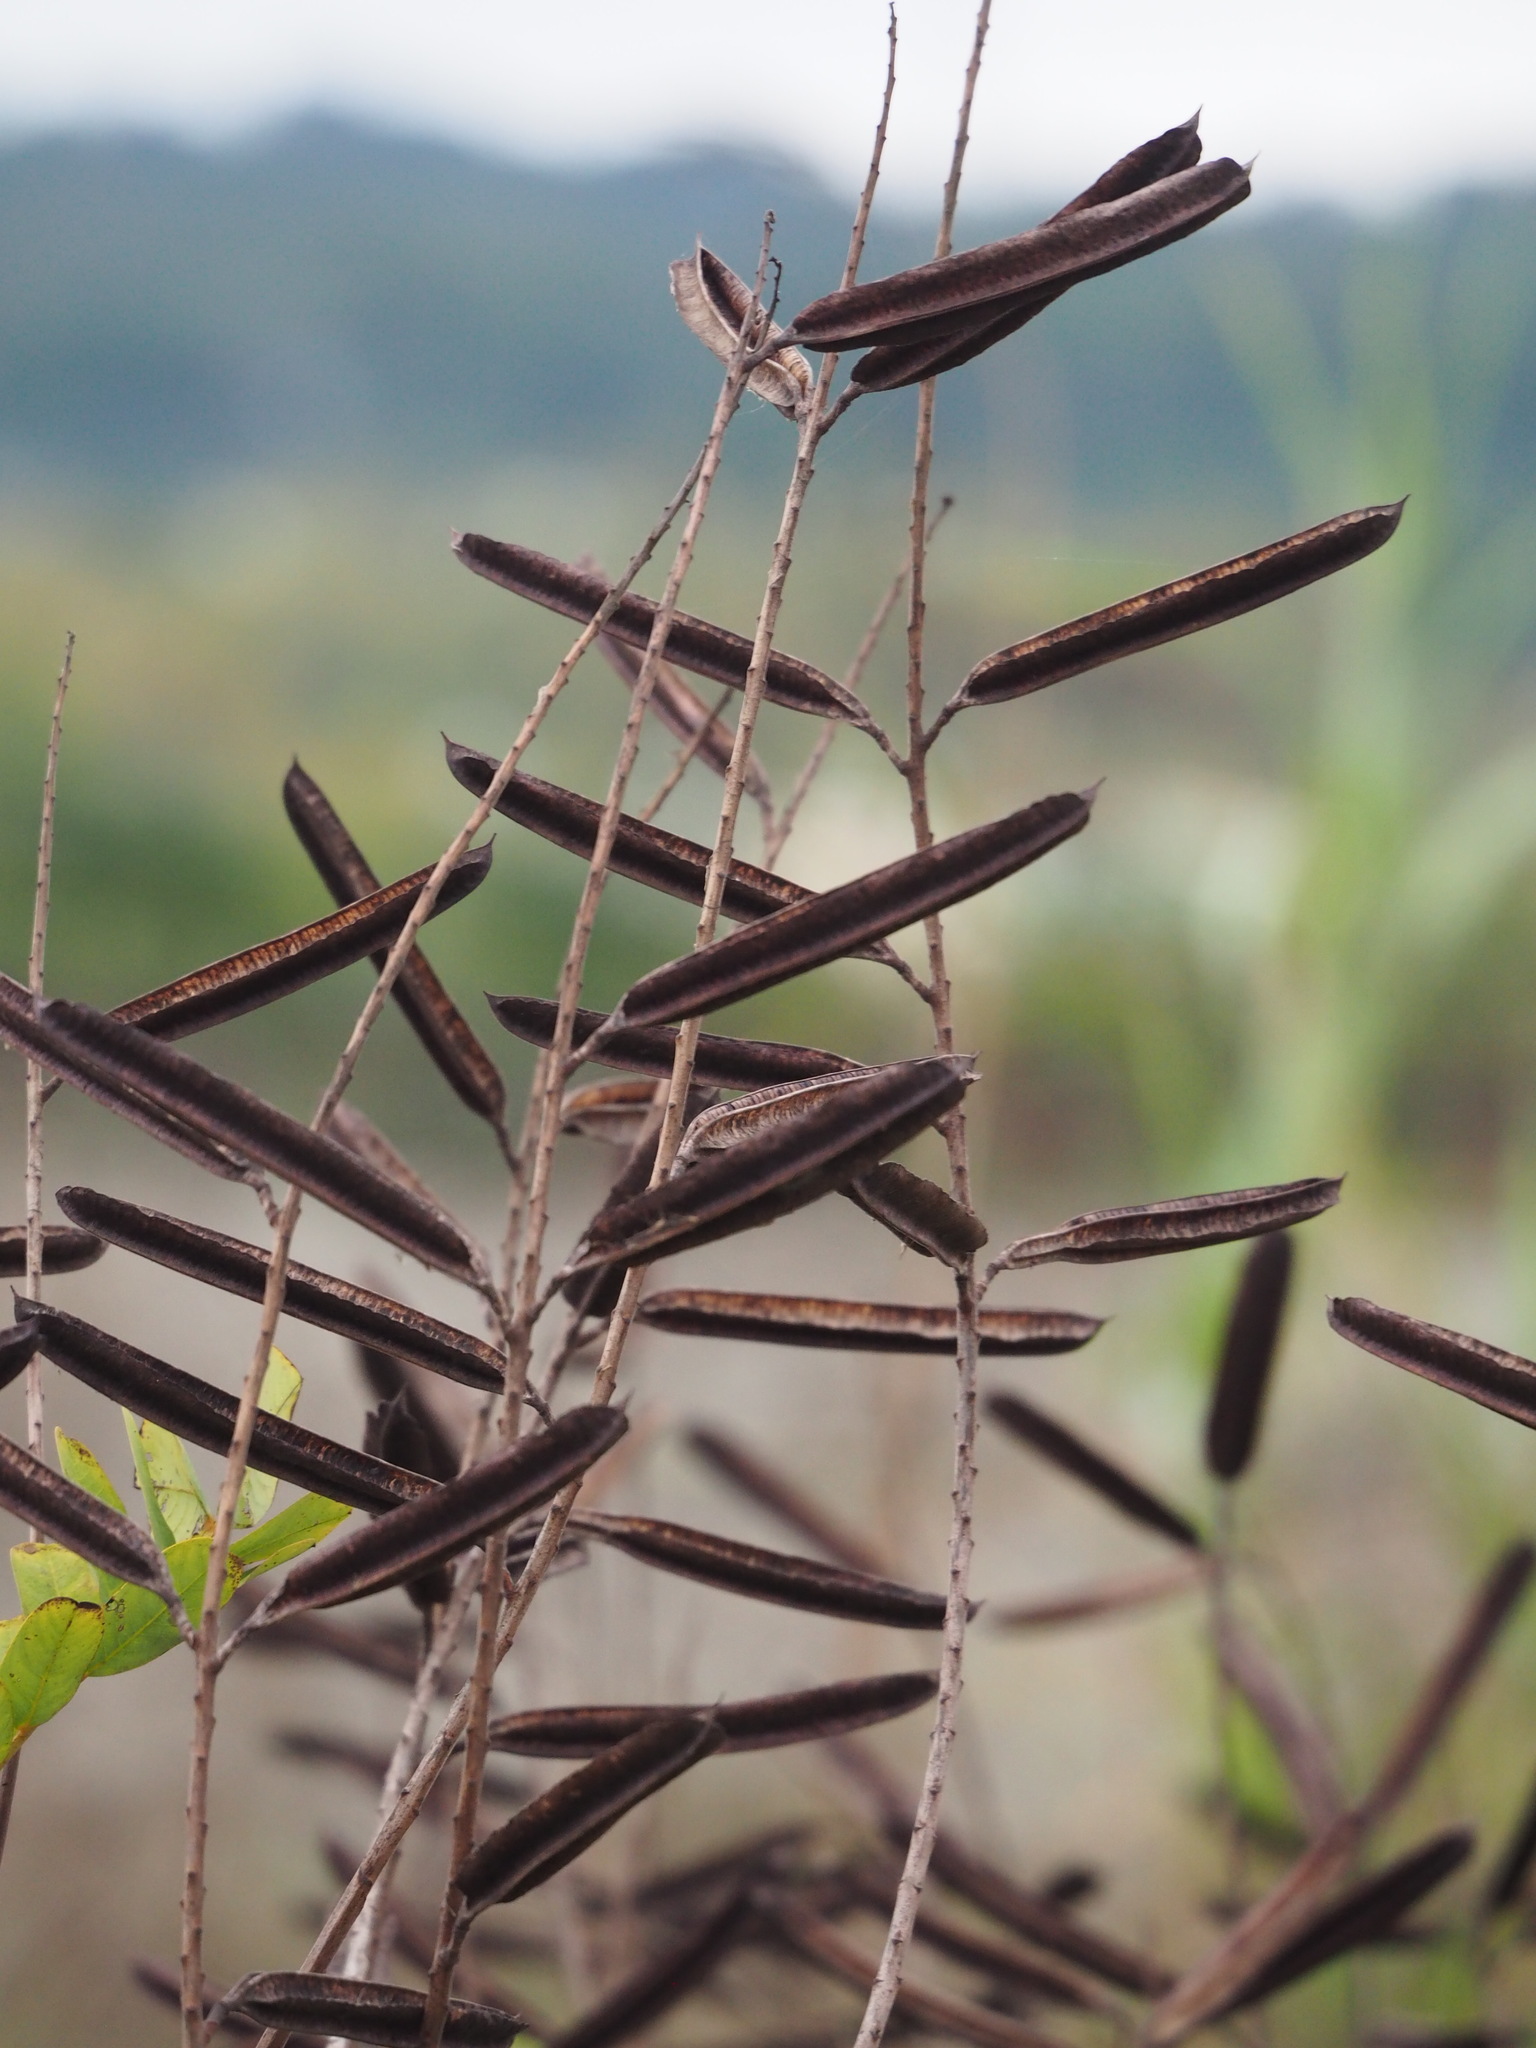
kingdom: Plantae
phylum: Tracheophyta
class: Magnoliopsida
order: Fabales
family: Fabaceae
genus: Senna
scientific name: Senna alata
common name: Emperor's candlesticks
